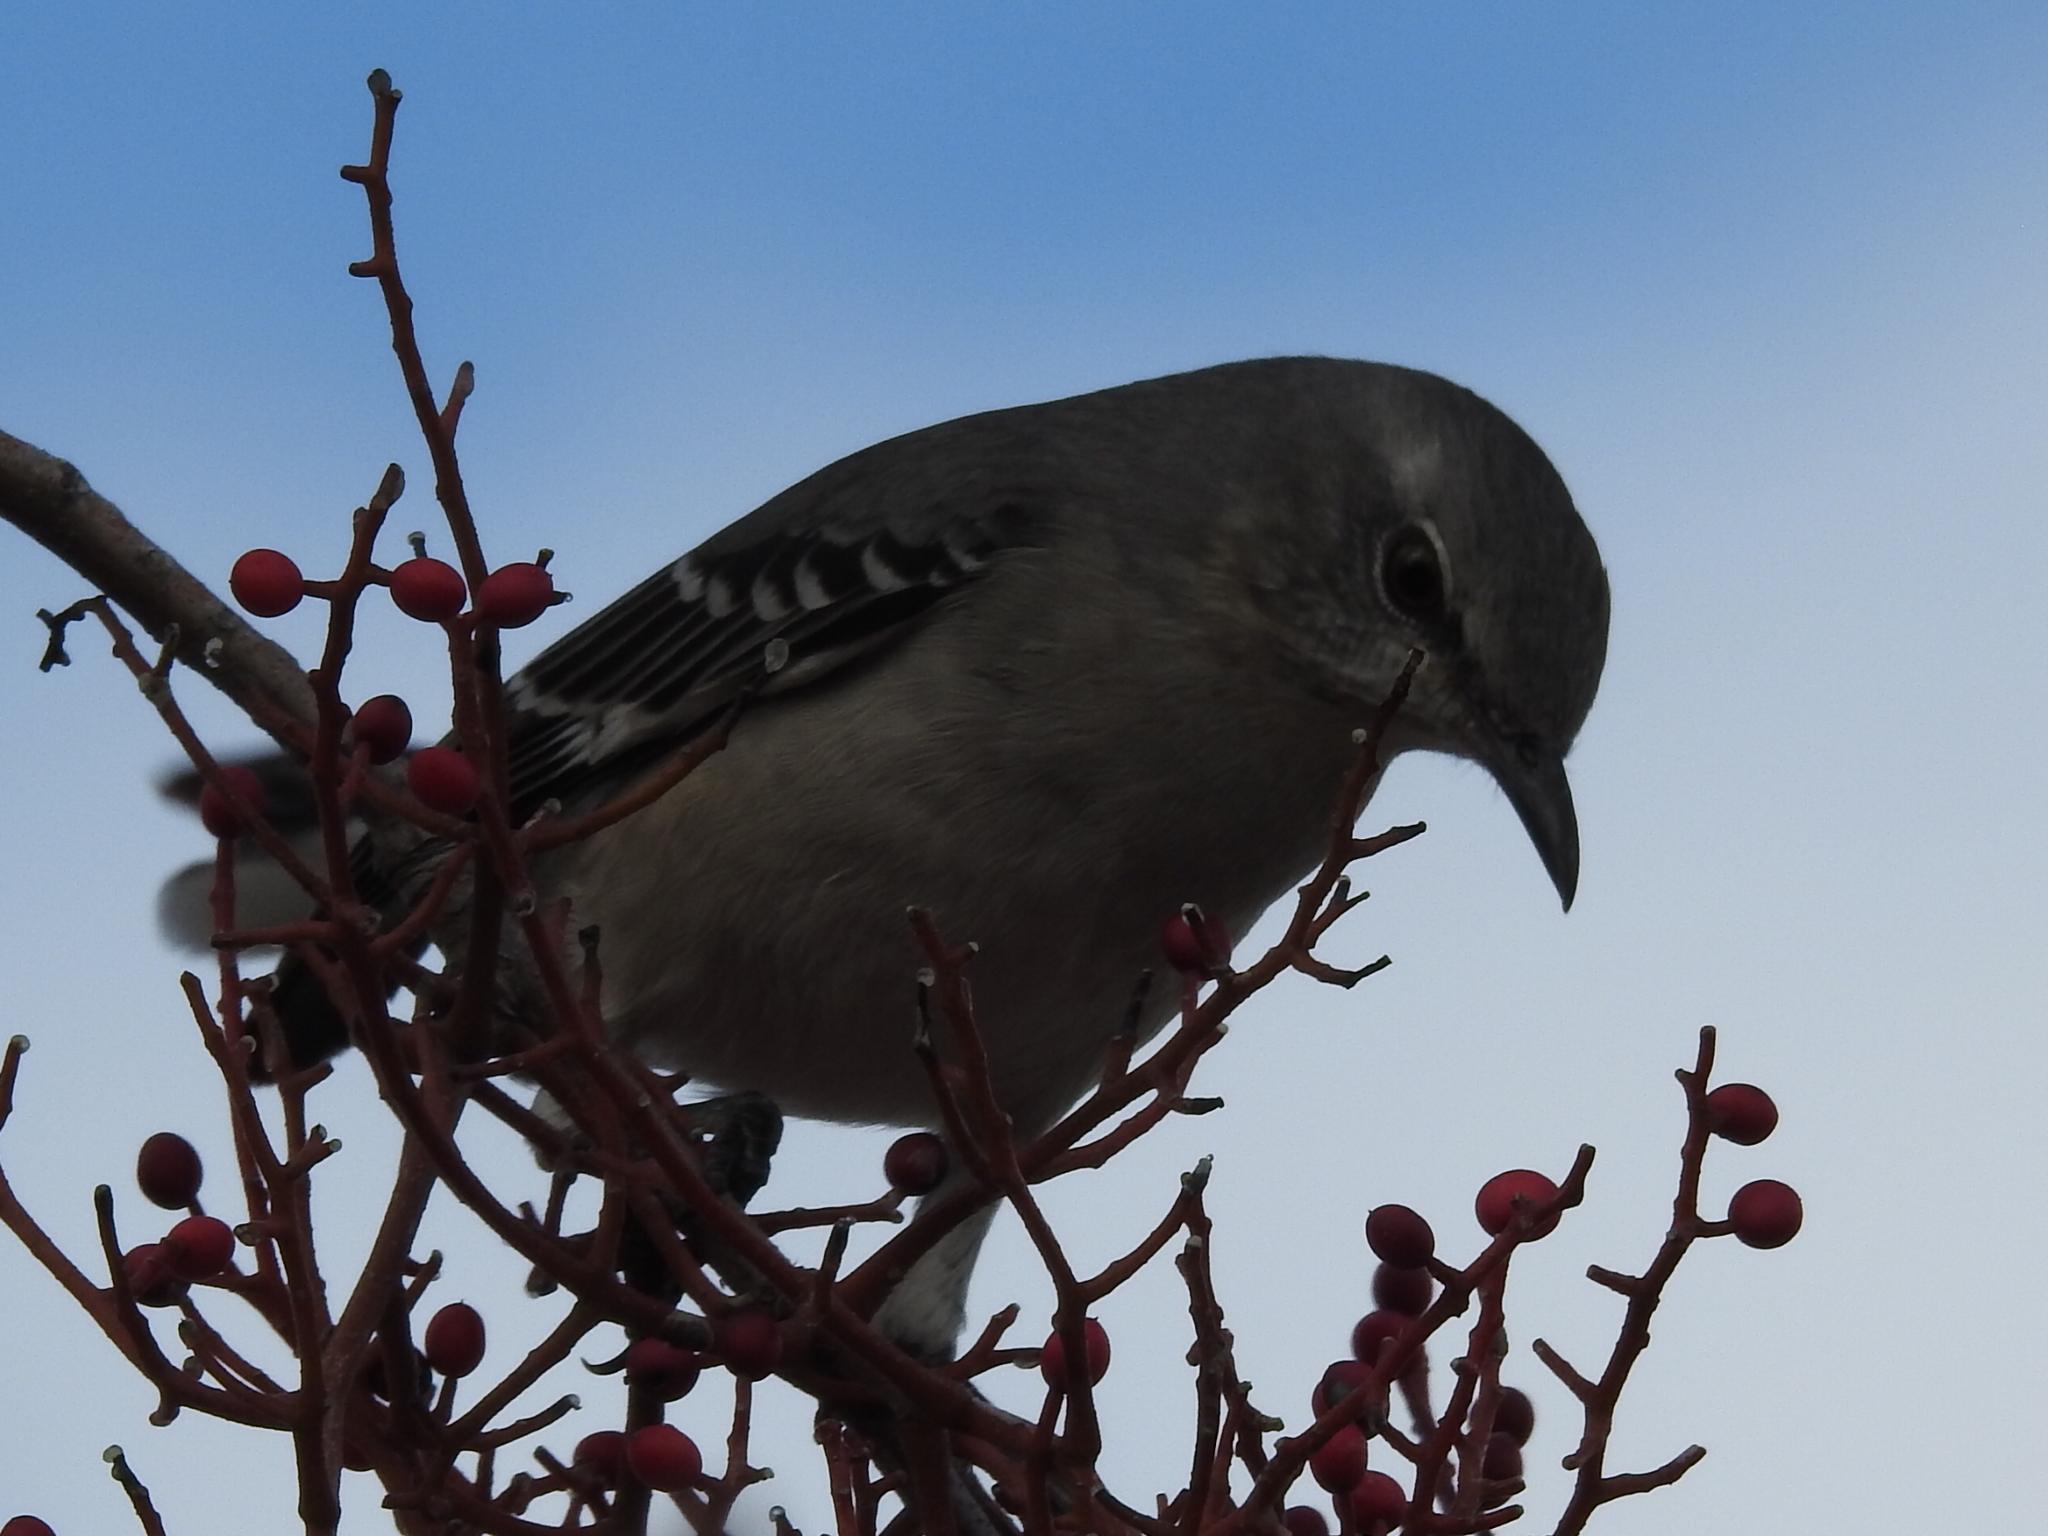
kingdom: Animalia
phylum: Chordata
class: Aves
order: Passeriformes
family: Mimidae
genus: Mimus
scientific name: Mimus polyglottos
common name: Northern mockingbird
